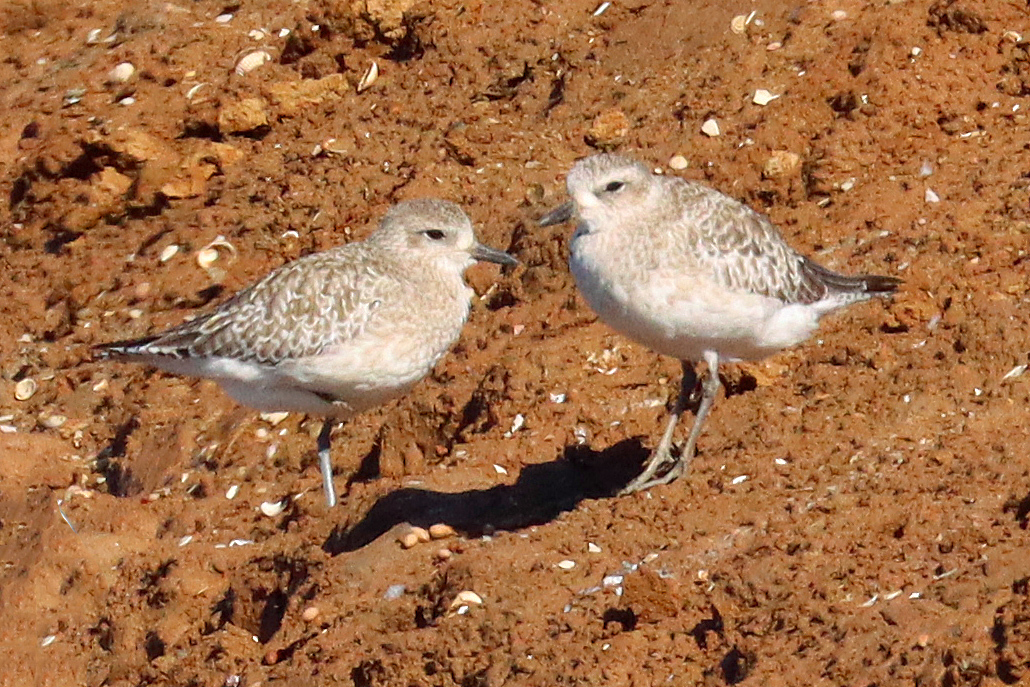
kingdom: Animalia
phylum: Chordata
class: Aves
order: Charadriiformes
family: Charadriidae
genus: Pluvialis
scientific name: Pluvialis apricaria
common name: European golden plover
